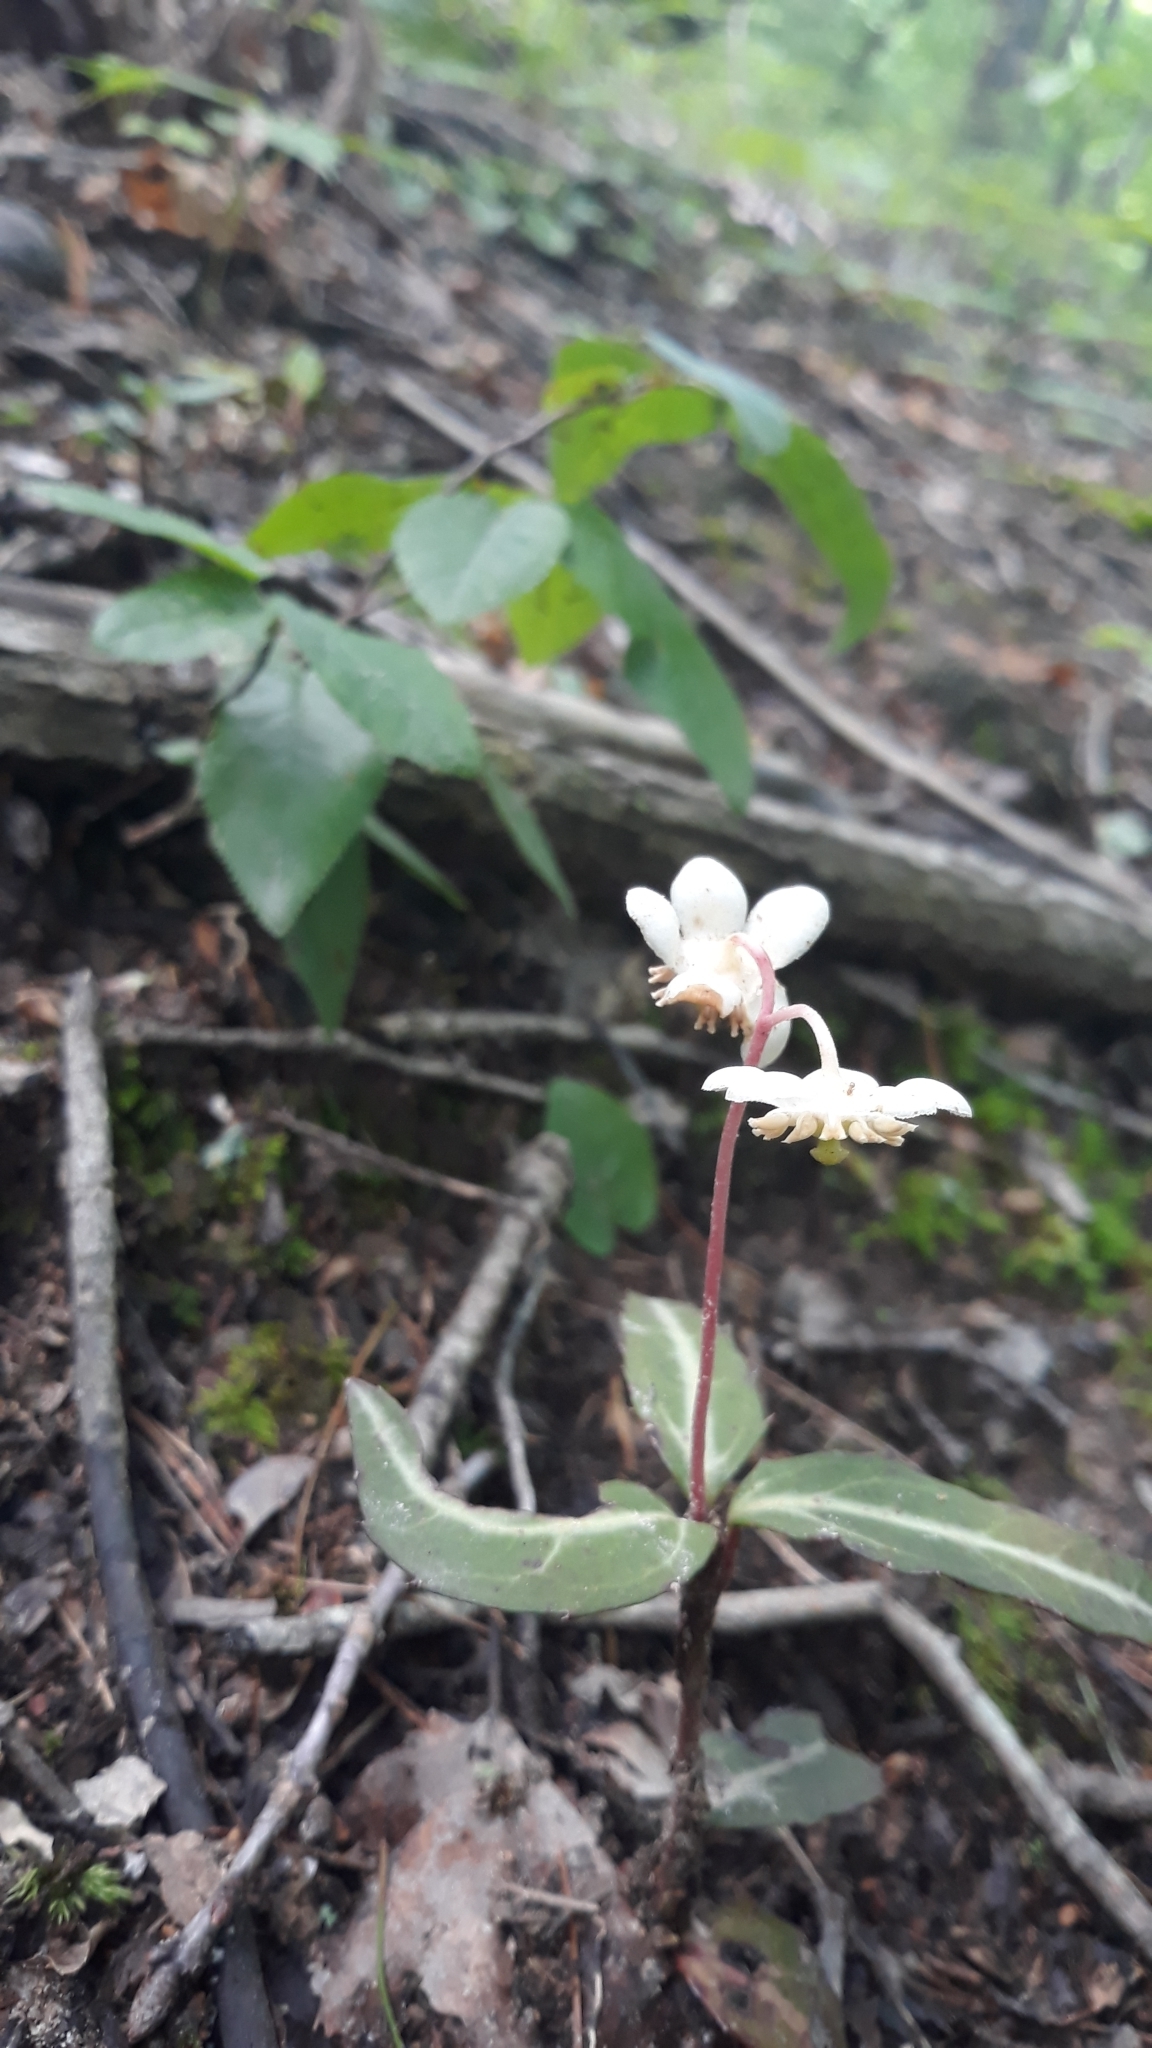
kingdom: Plantae
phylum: Tracheophyta
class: Magnoliopsida
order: Ericales
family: Ericaceae
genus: Chimaphila
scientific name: Chimaphila maculata
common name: Spotted pipsissewa
